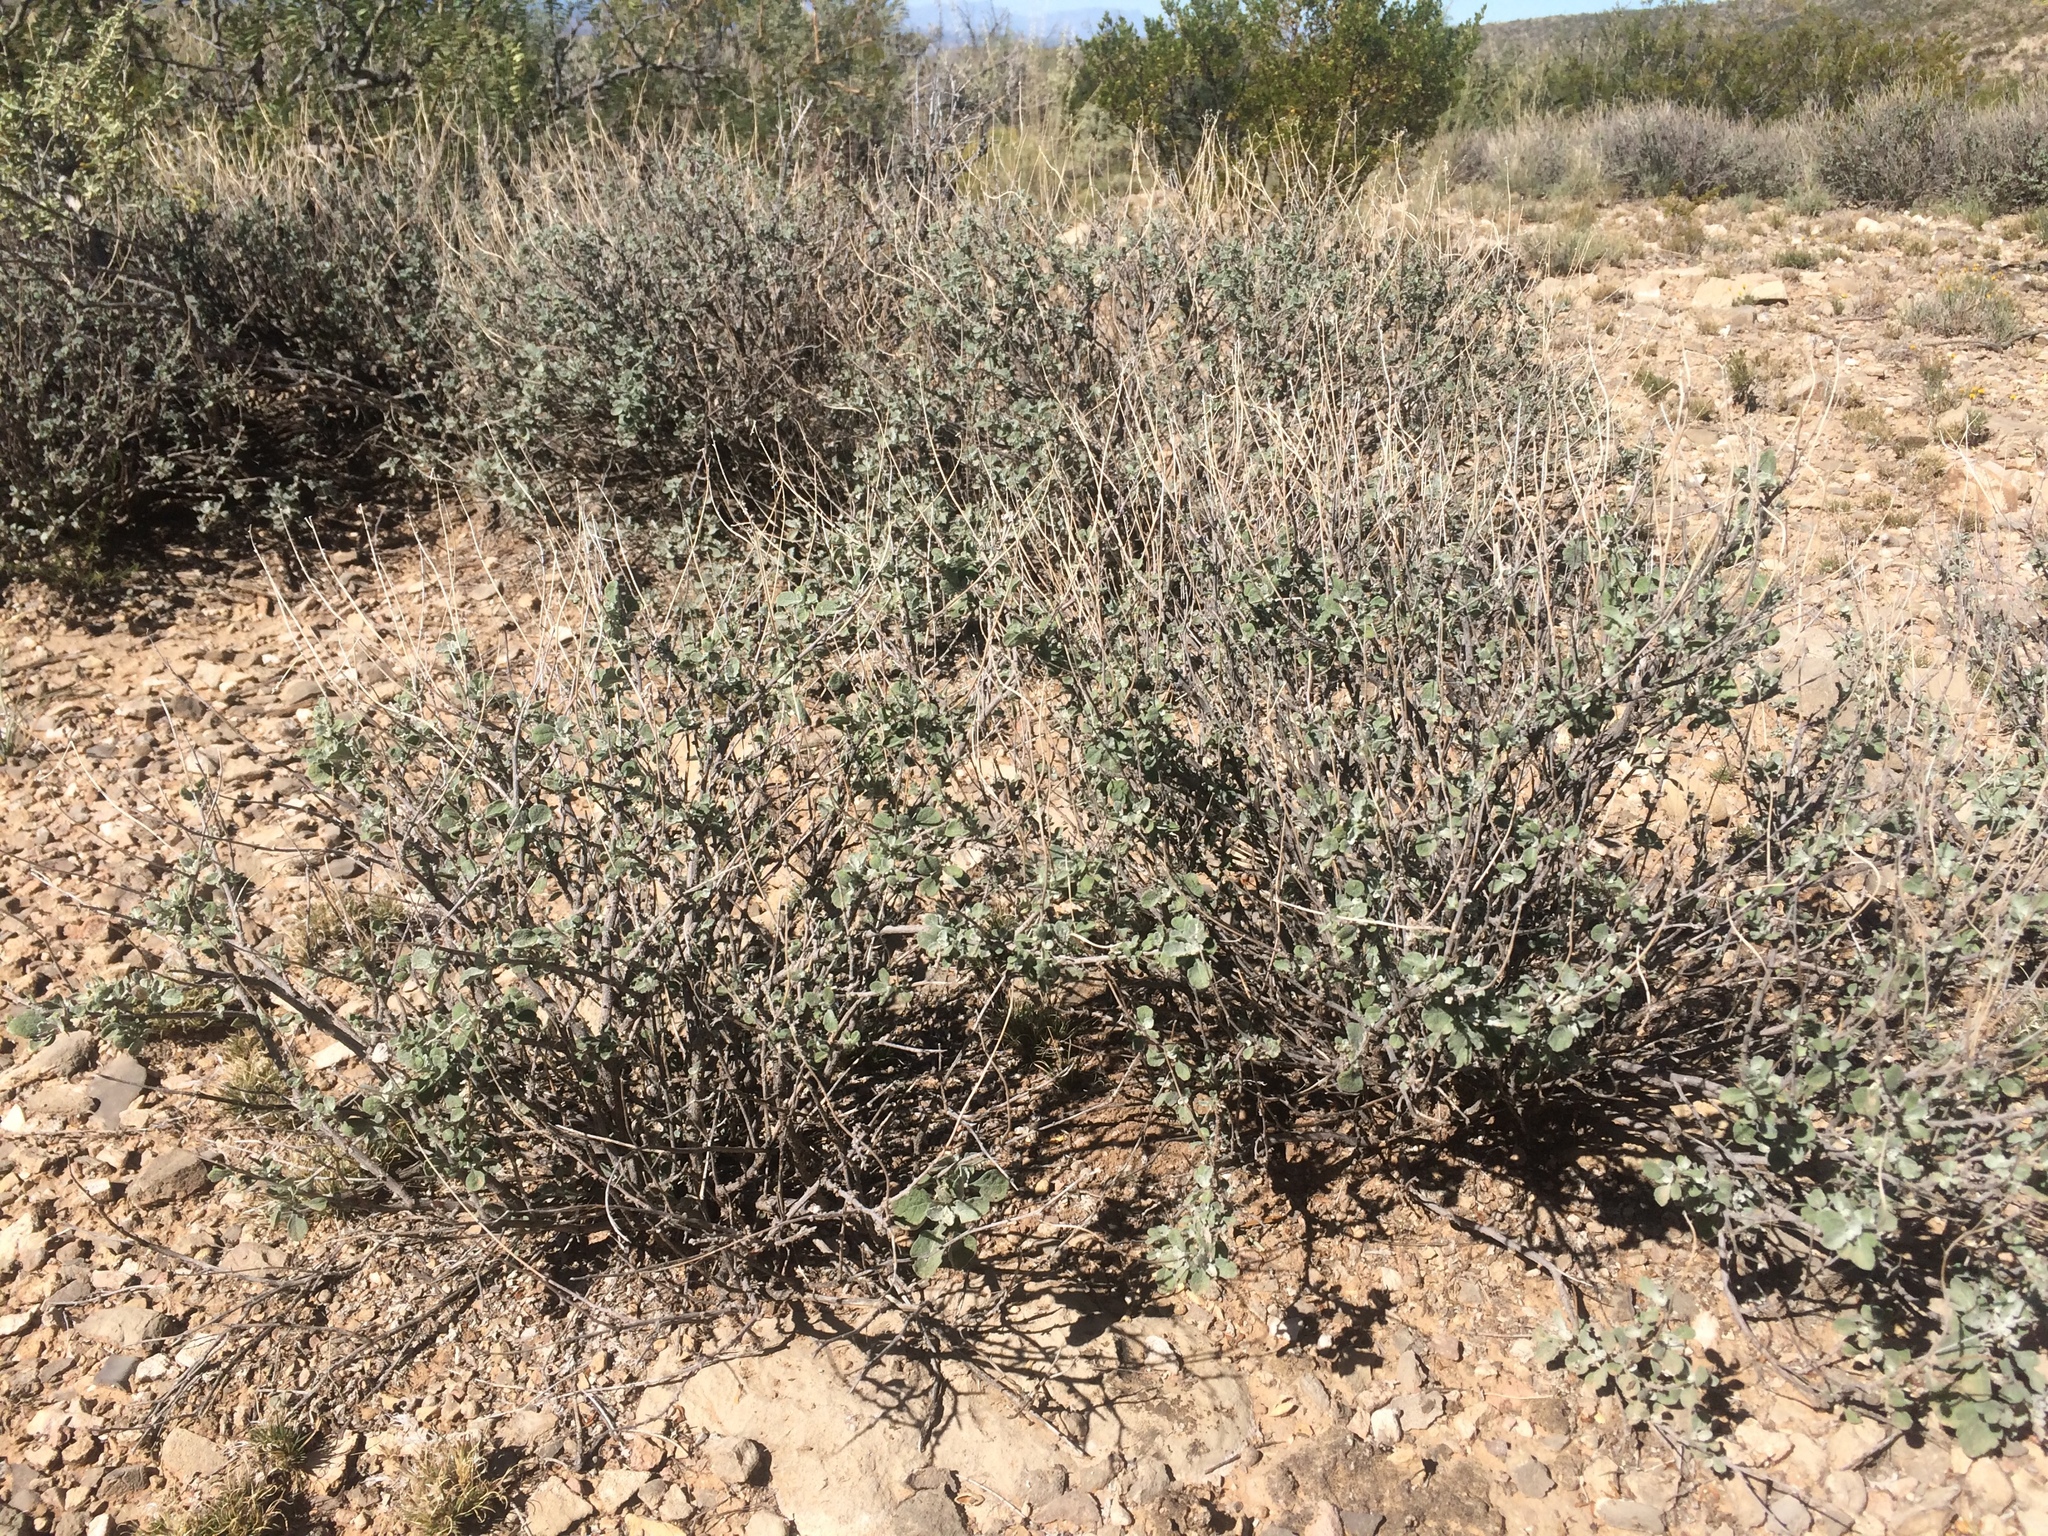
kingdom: Plantae
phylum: Tracheophyta
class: Magnoliopsida
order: Asterales
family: Asteraceae
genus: Parthenium
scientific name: Parthenium incanum
